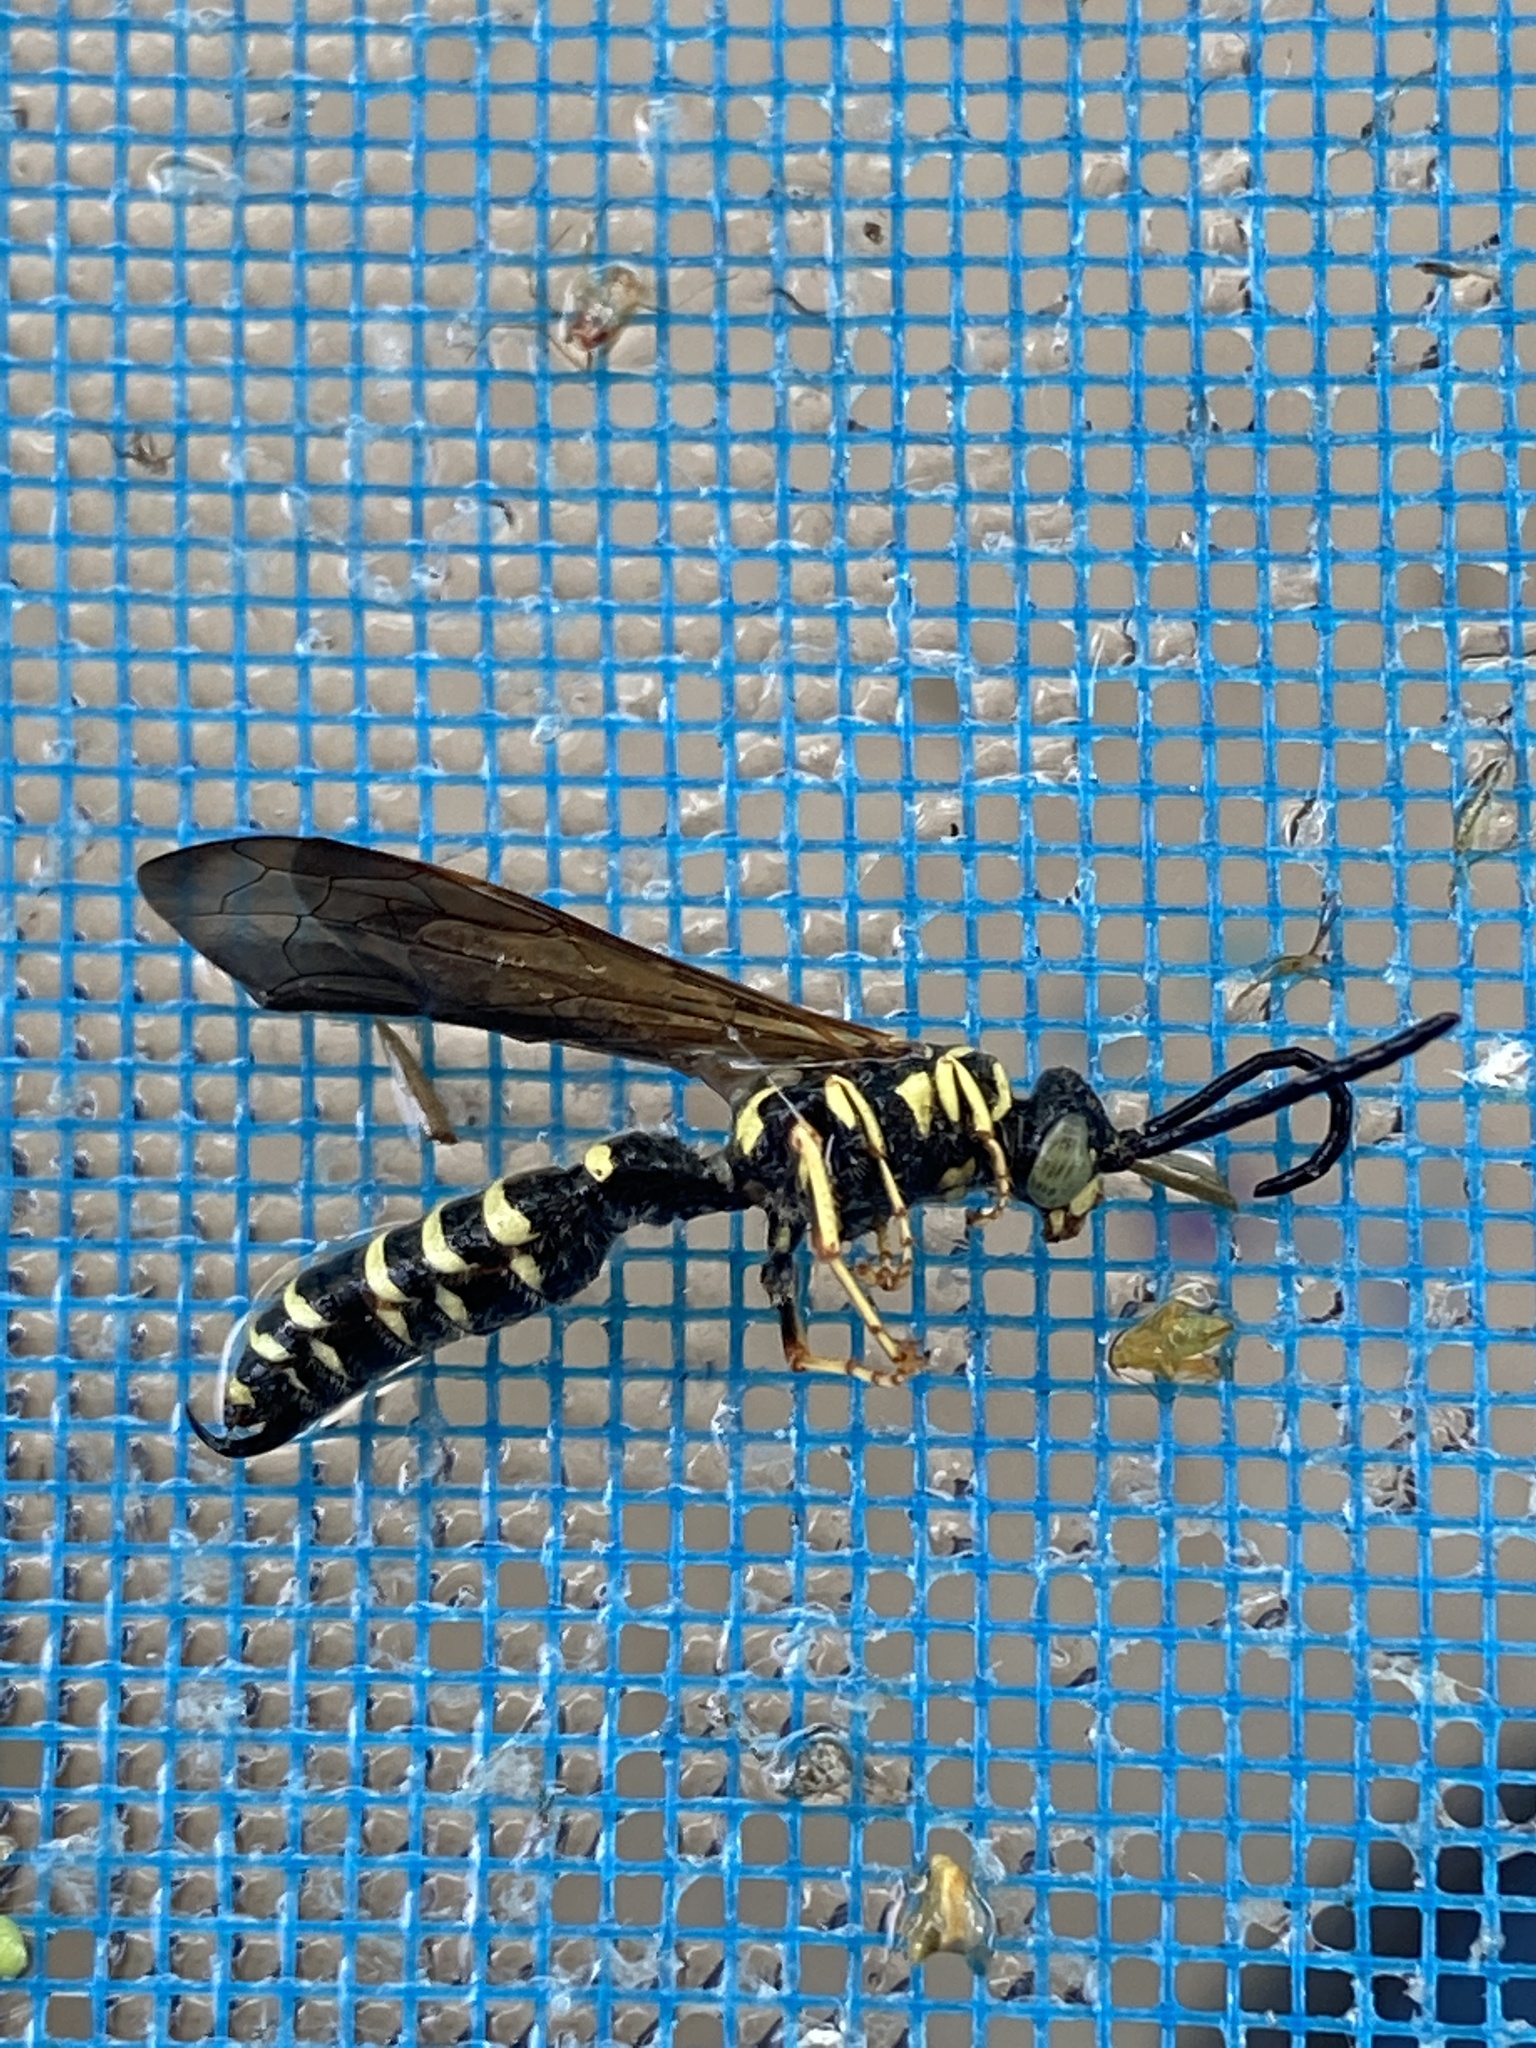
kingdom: Animalia
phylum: Arthropoda
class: Insecta
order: Hymenoptera
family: Tiphiidae
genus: Myzinum
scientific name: Myzinum quinquecinctum
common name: Five-banded thynnid wasp
